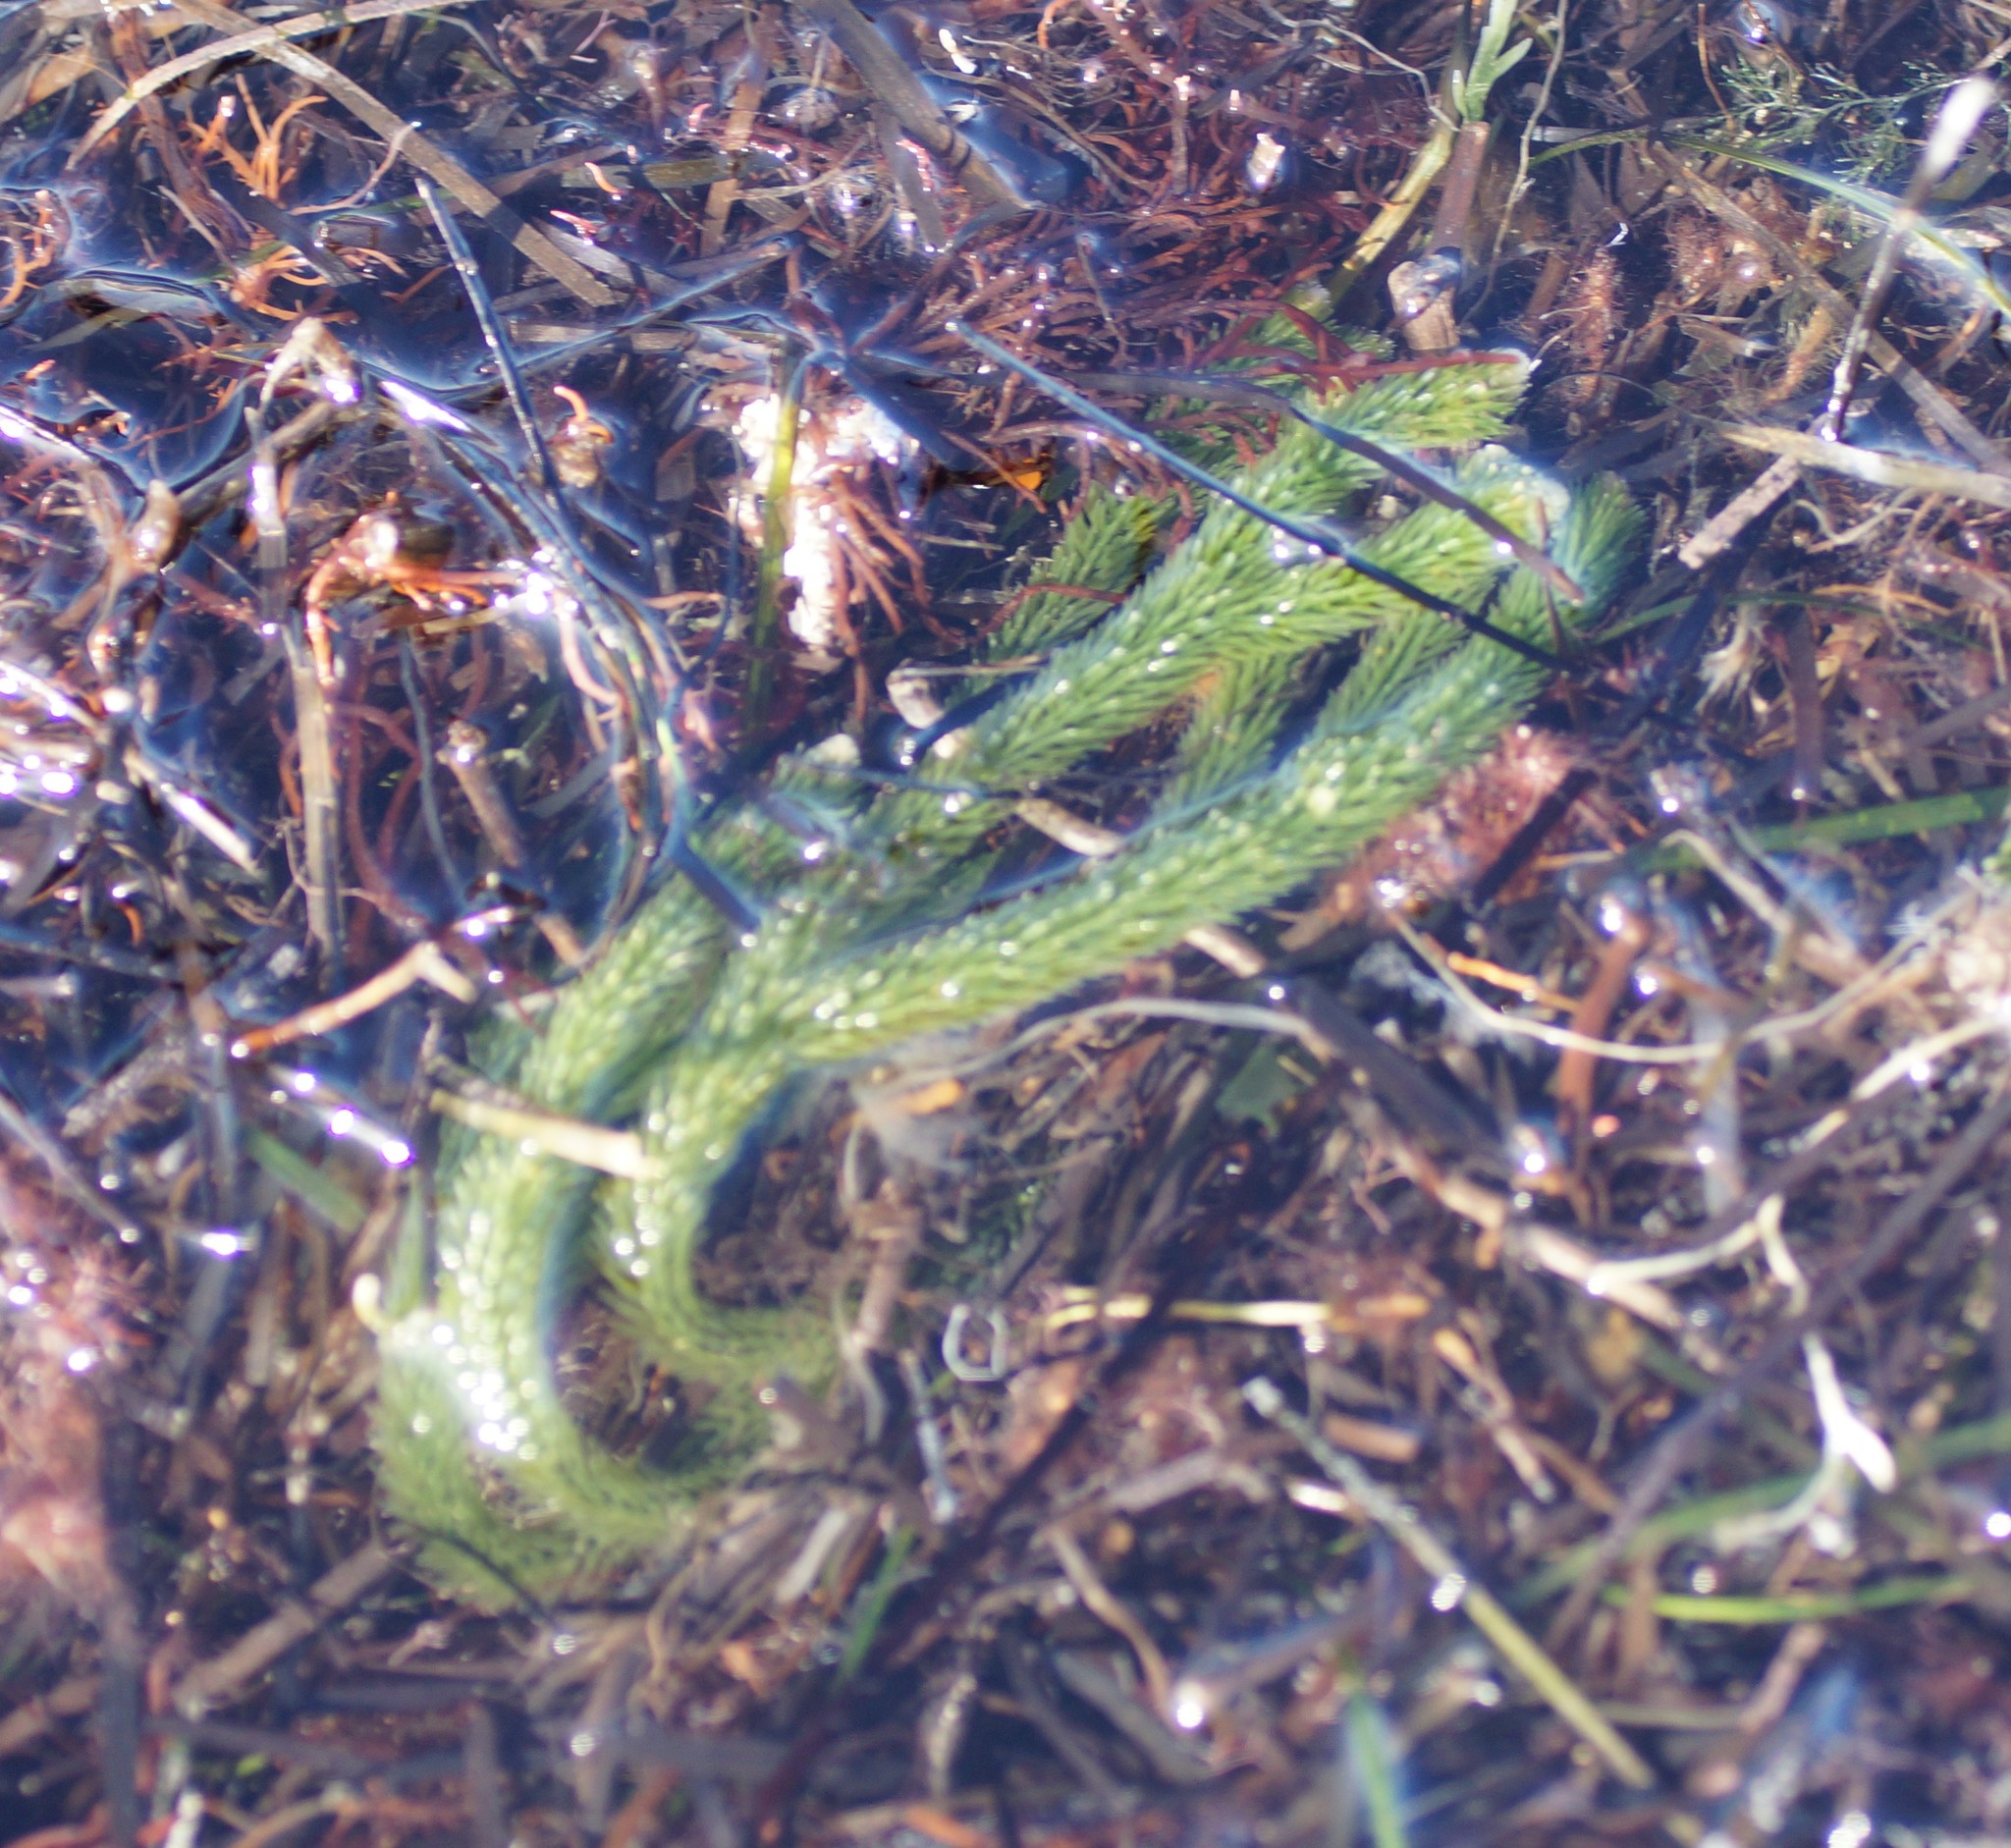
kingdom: Plantae
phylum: Chlorophyta
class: Ulvophyceae
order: Bryopsidales
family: Caulerpaceae
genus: Caulerpa
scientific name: Caulerpa brownii
